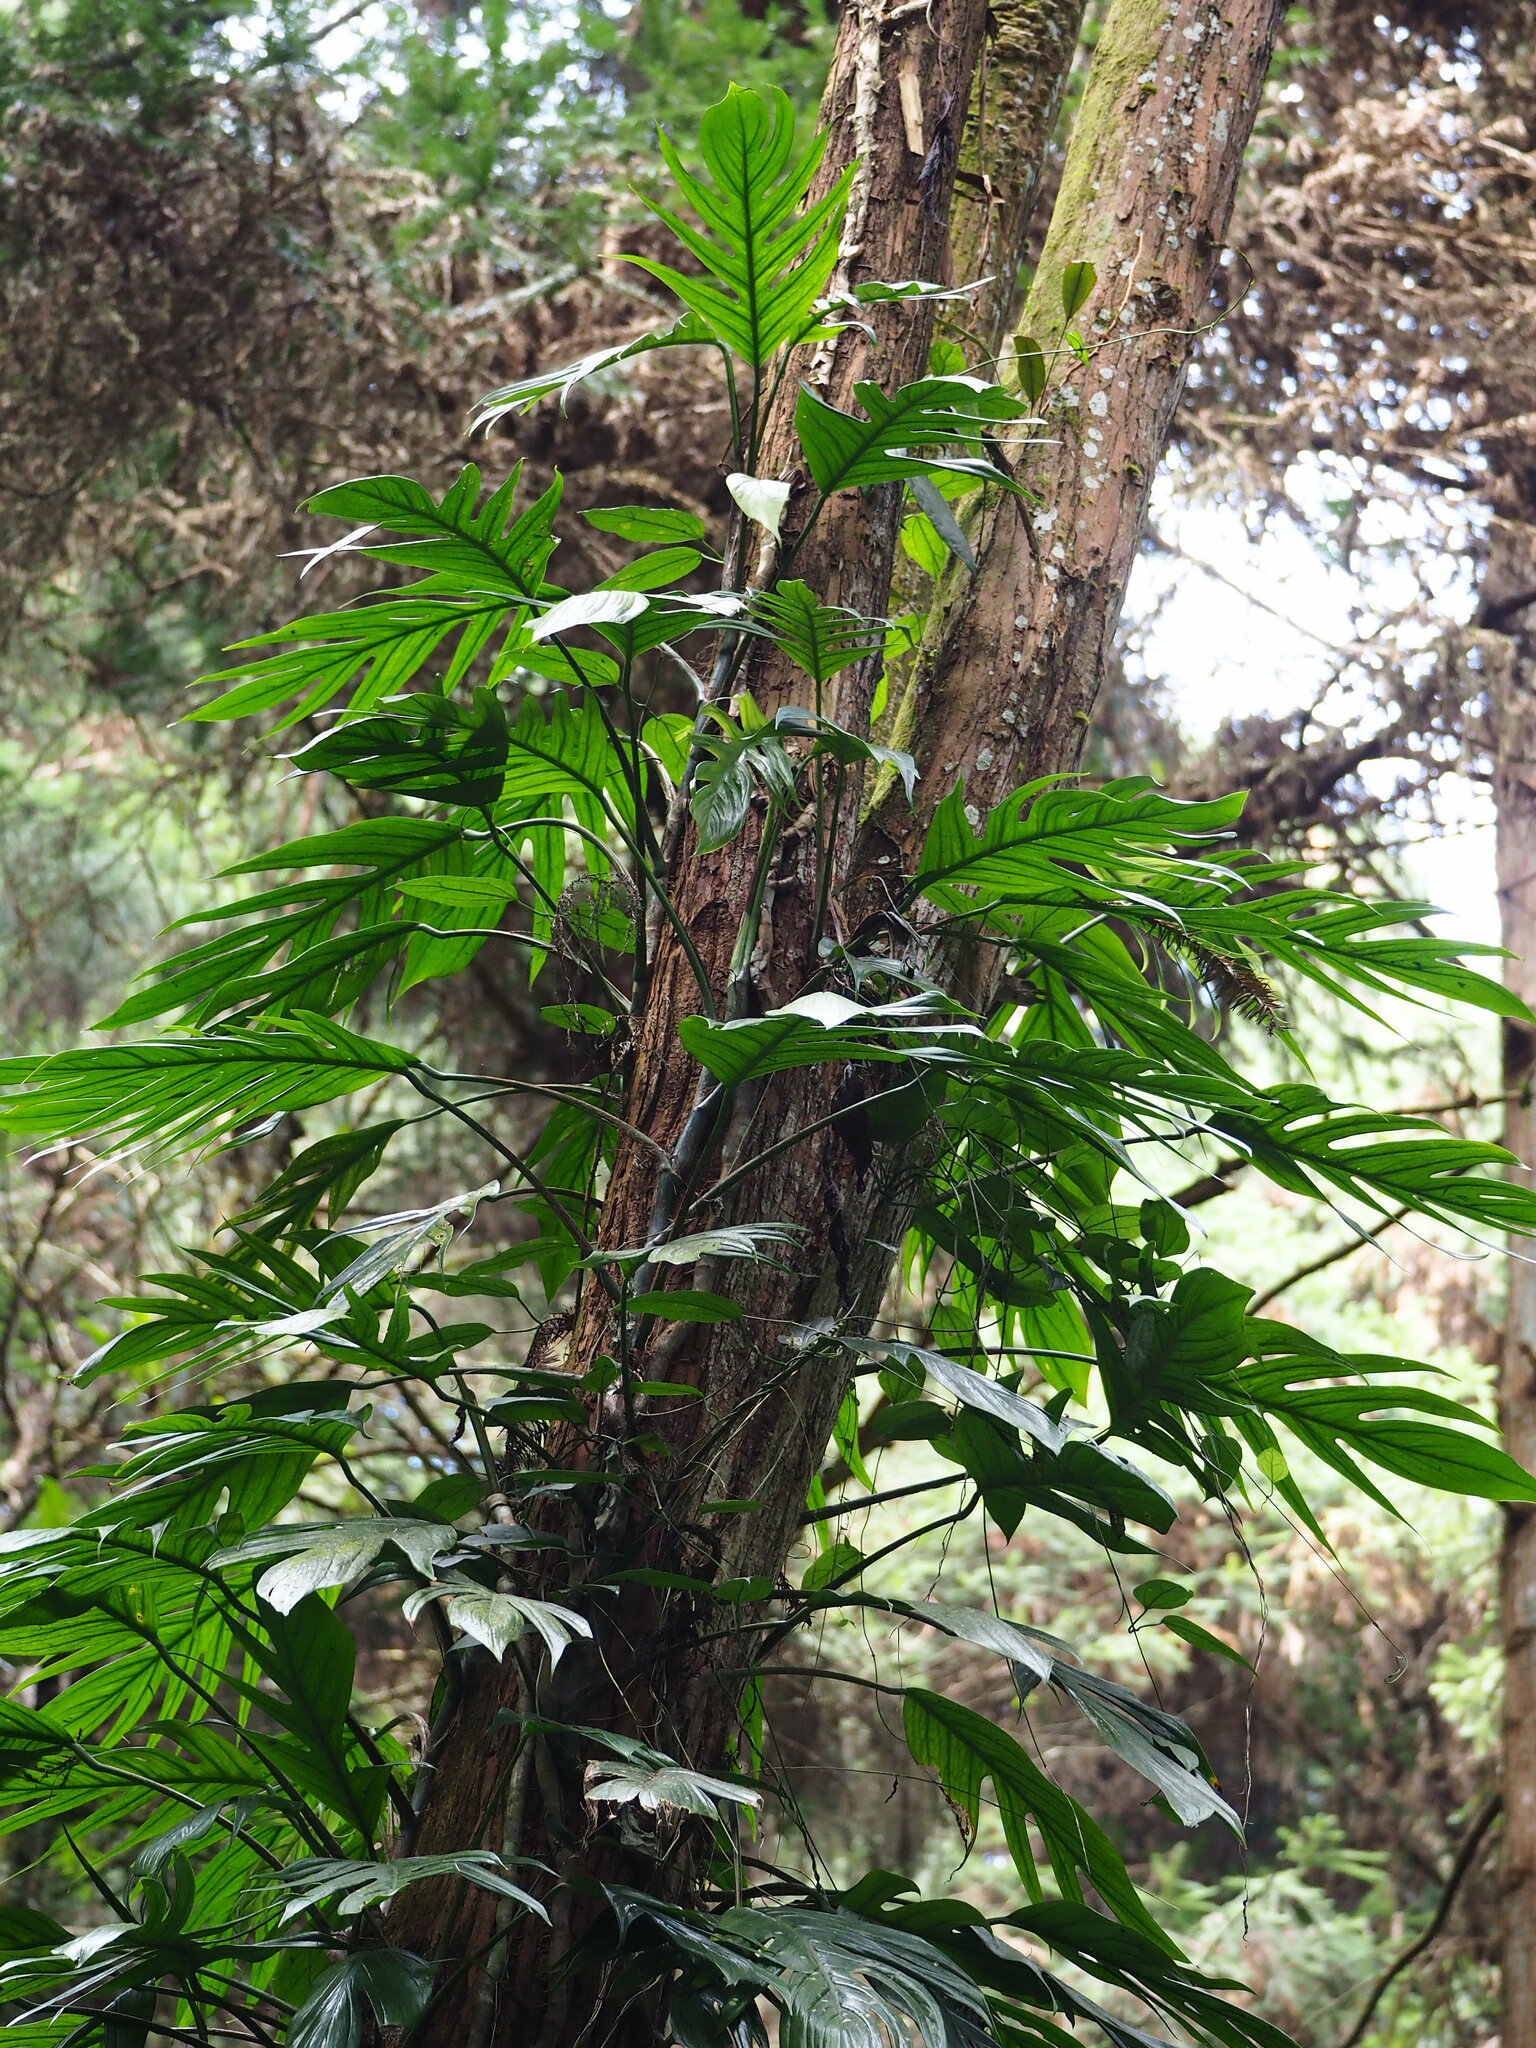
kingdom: Plantae
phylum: Tracheophyta
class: Liliopsida
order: Alismatales
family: Araceae
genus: Epipremnum
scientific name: Epipremnum pinnatum
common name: Centipede tongavine
